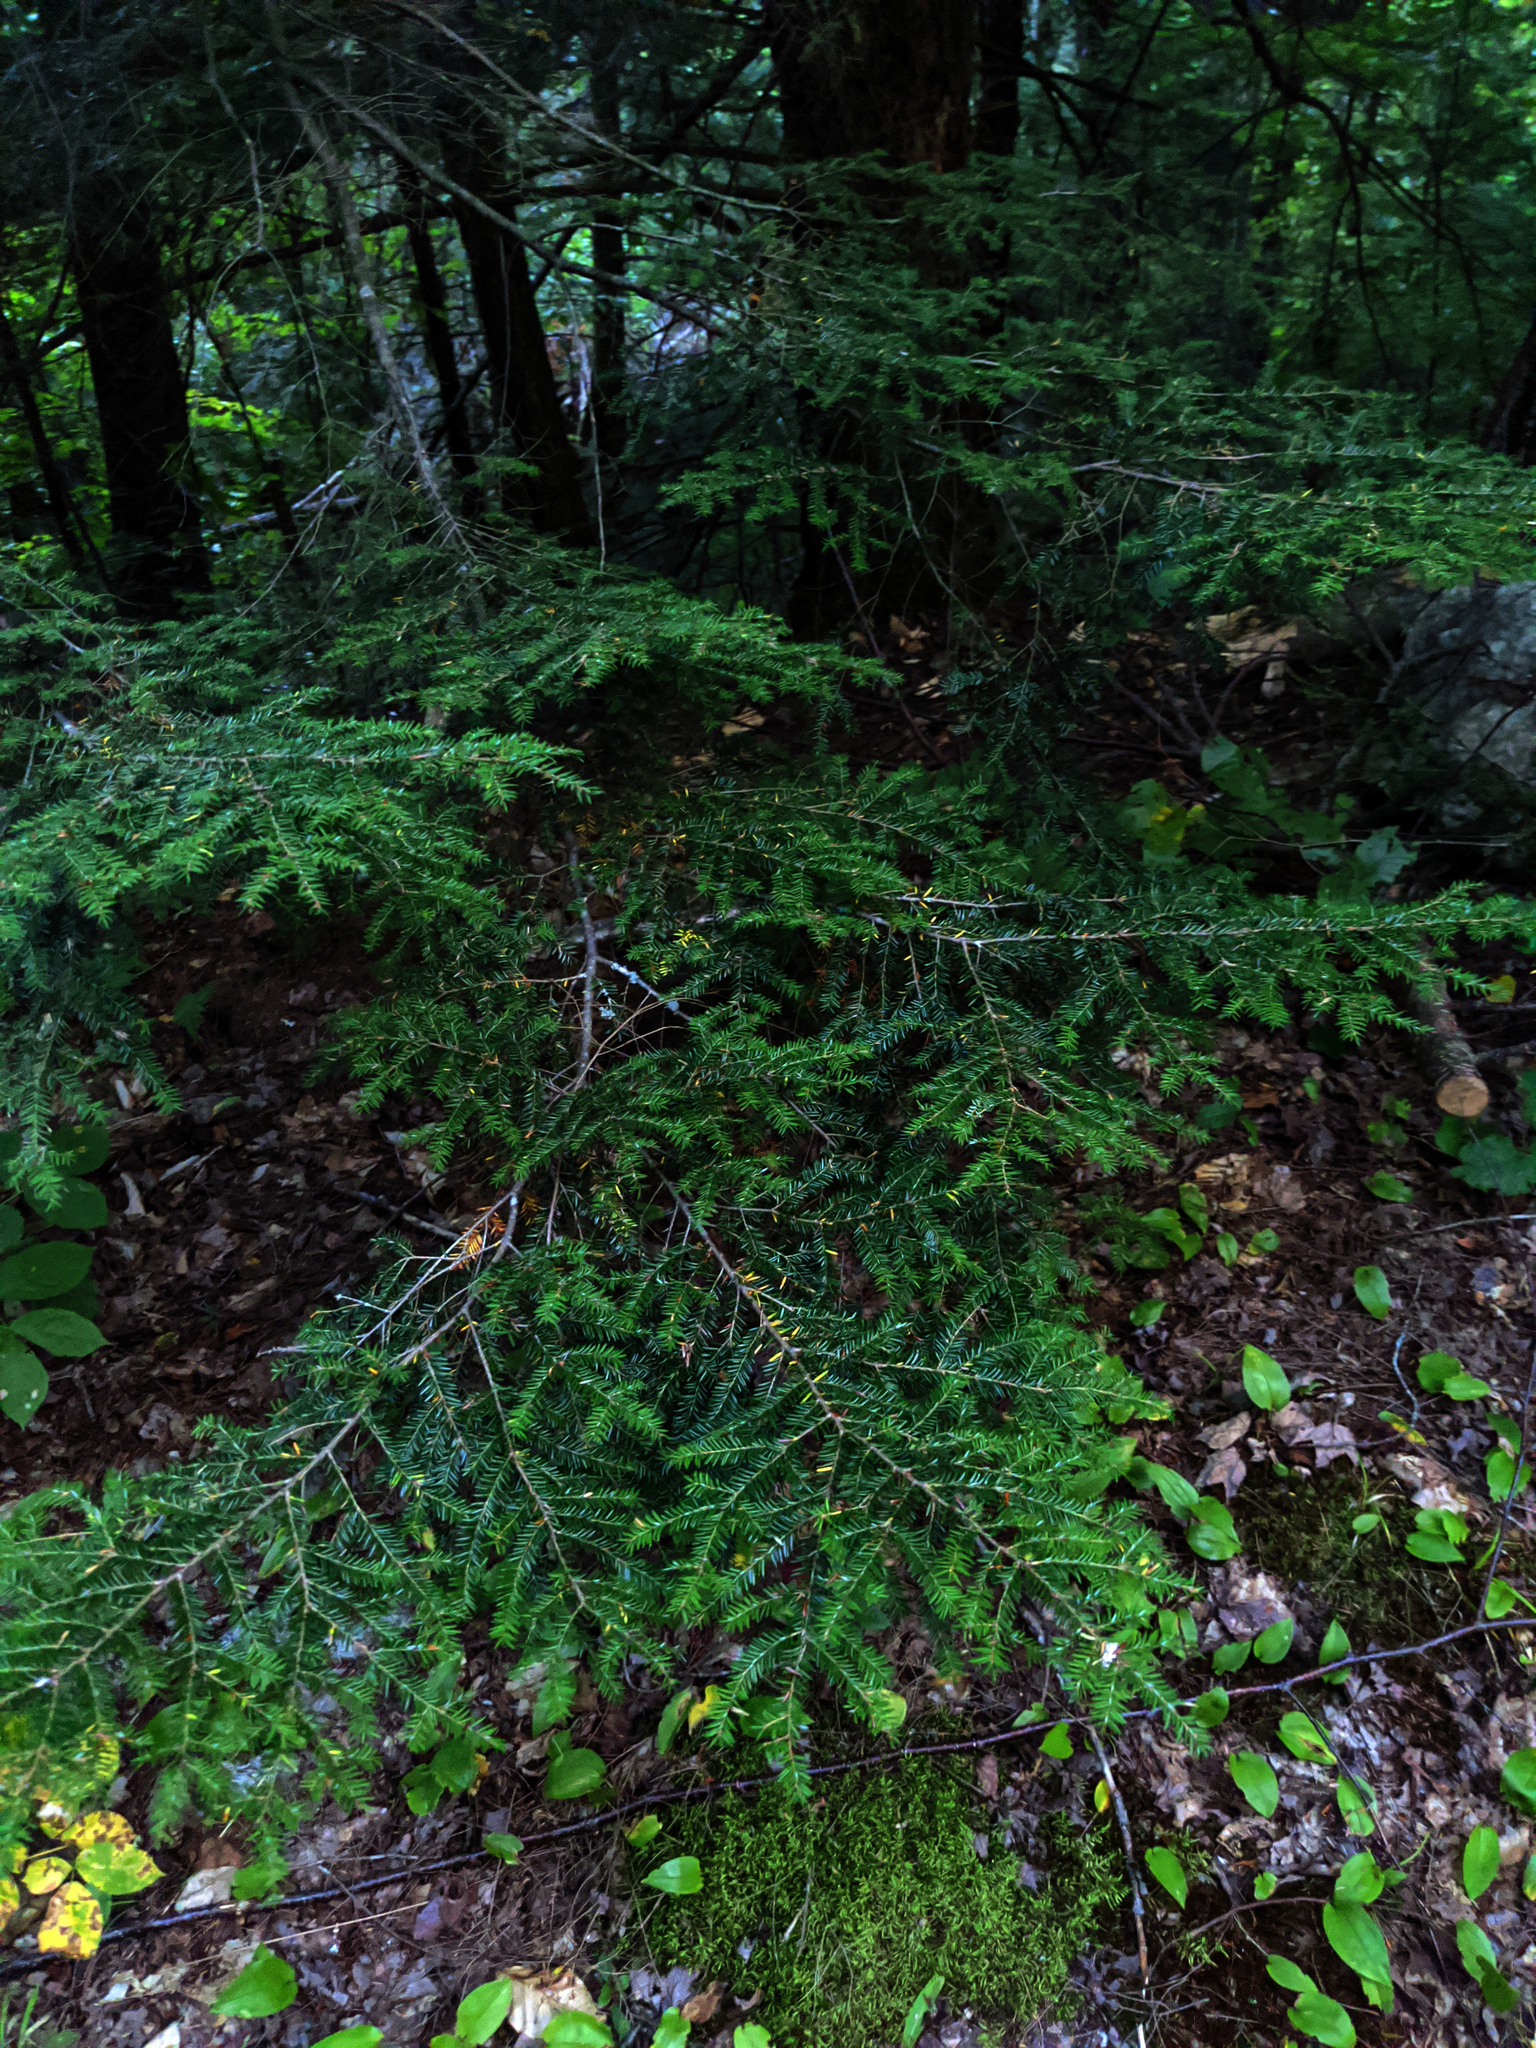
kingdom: Plantae
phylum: Tracheophyta
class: Pinopsida
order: Pinales
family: Pinaceae
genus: Tsuga
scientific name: Tsuga canadensis
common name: Eastern hemlock
